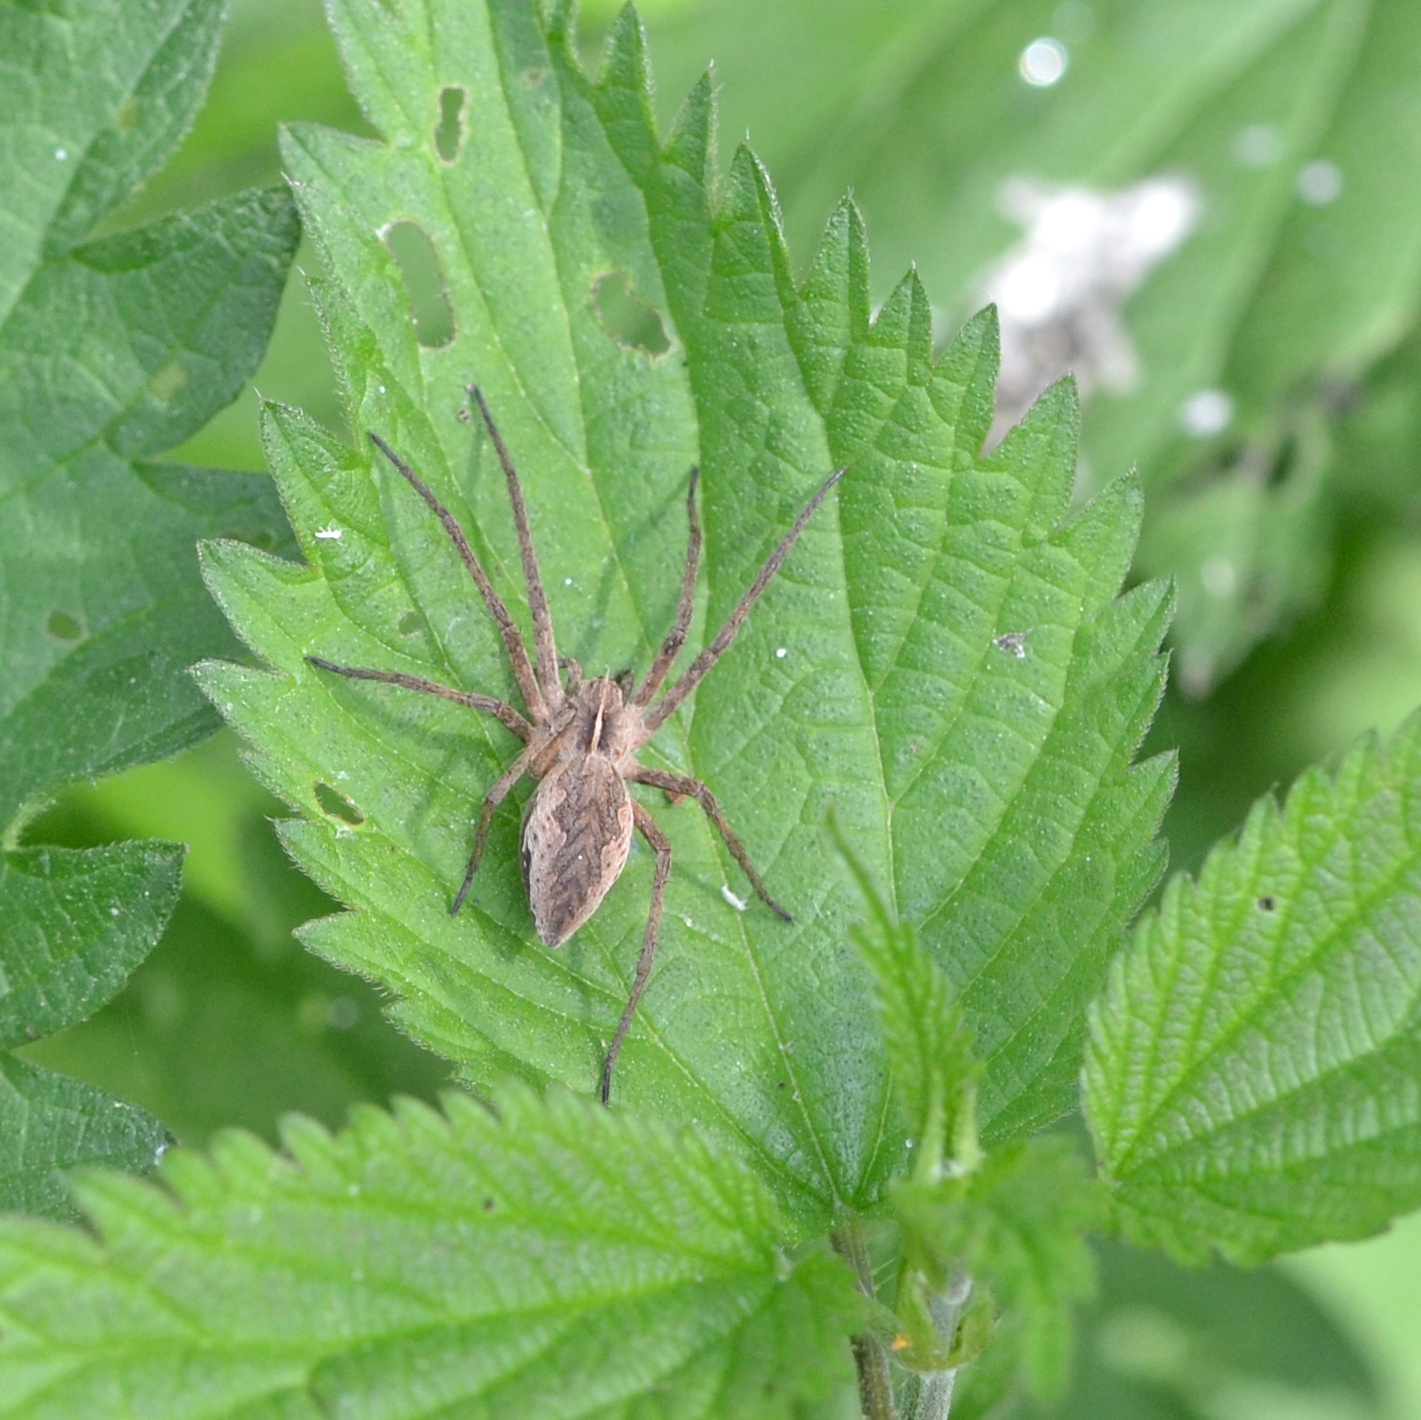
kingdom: Animalia
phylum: Arthropoda
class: Arachnida
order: Araneae
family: Pisauridae
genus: Pisaura
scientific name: Pisaura mirabilis
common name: Tent spider
